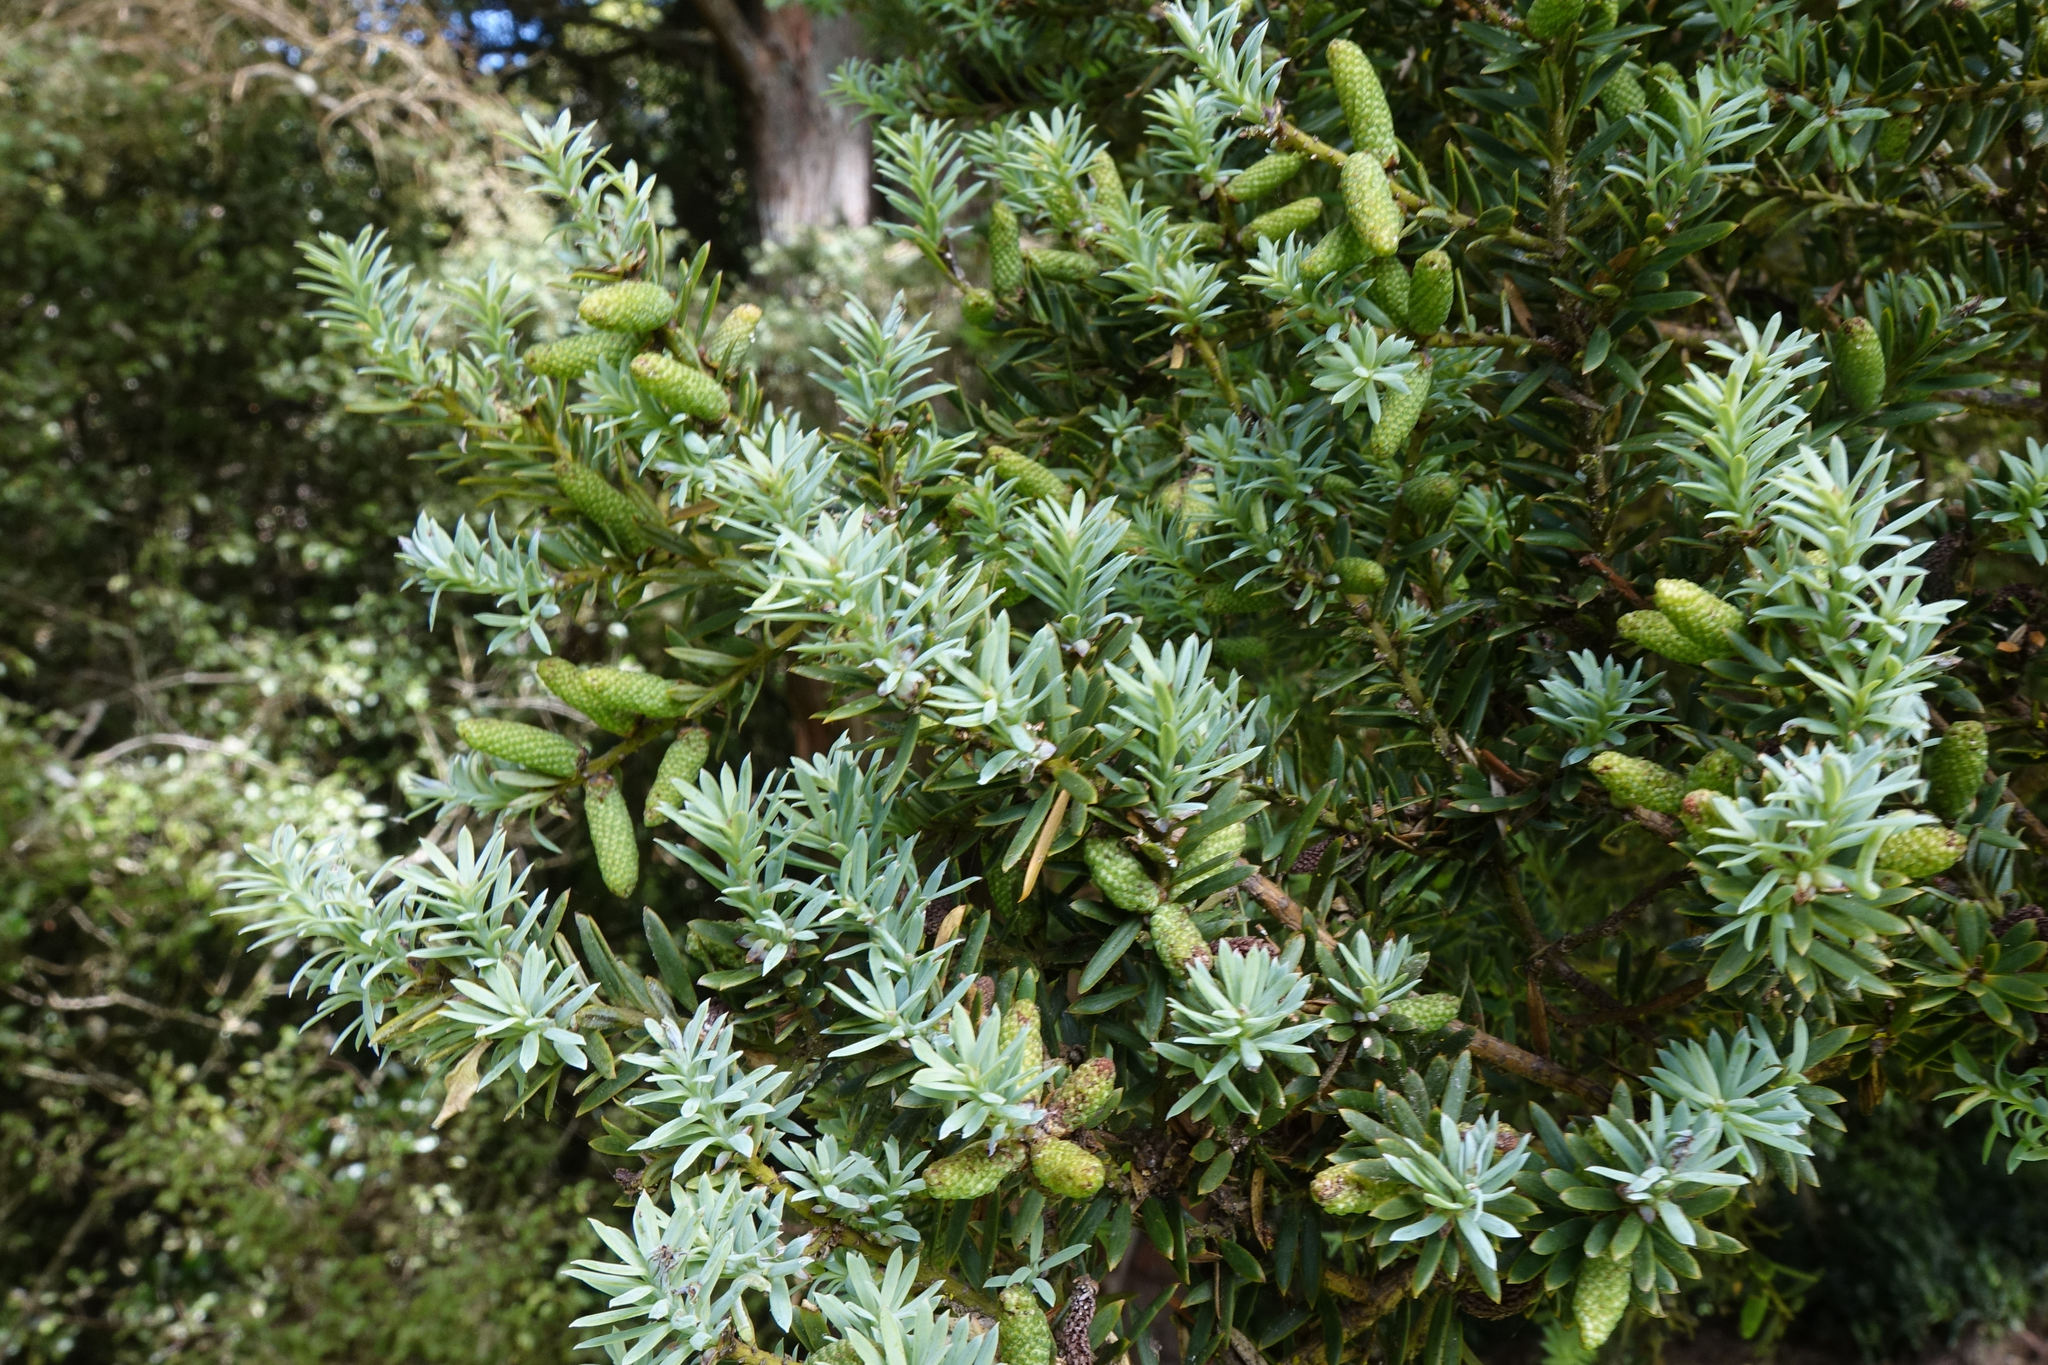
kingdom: Plantae
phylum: Tracheophyta
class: Pinopsida
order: Pinales
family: Podocarpaceae
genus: Podocarpus
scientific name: Podocarpus totara
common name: Totara
